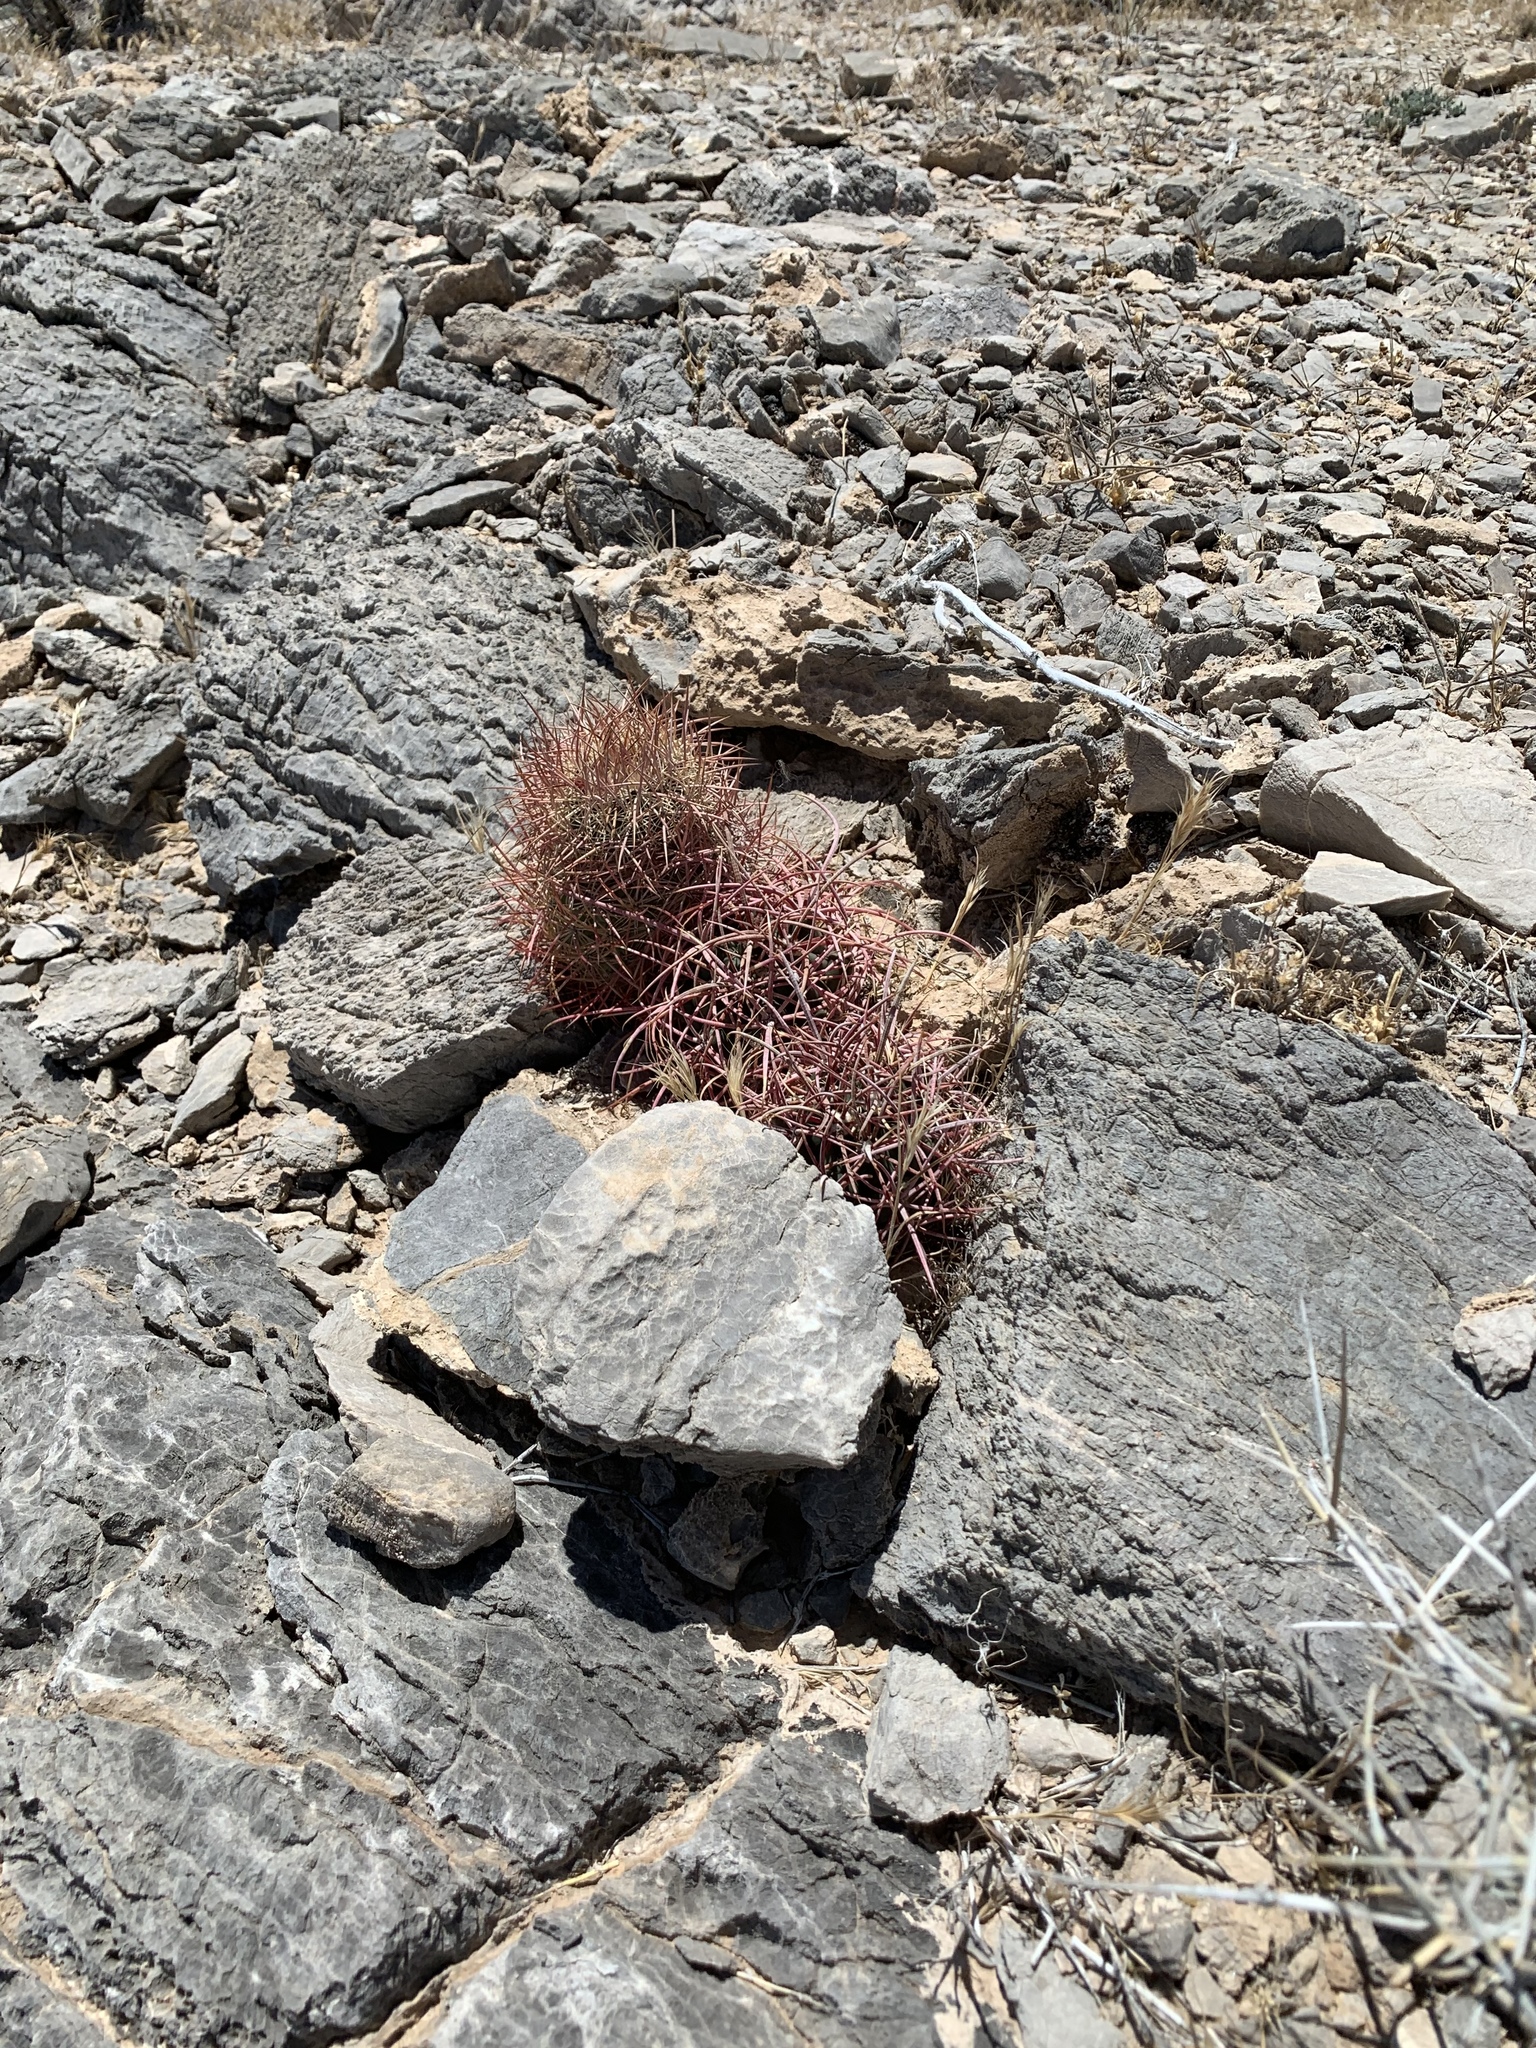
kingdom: Plantae
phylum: Tracheophyta
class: Magnoliopsida
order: Caryophyllales
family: Cactaceae
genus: Sclerocactus
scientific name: Sclerocactus johnsonii
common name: Eight-spine fishhook cactus
